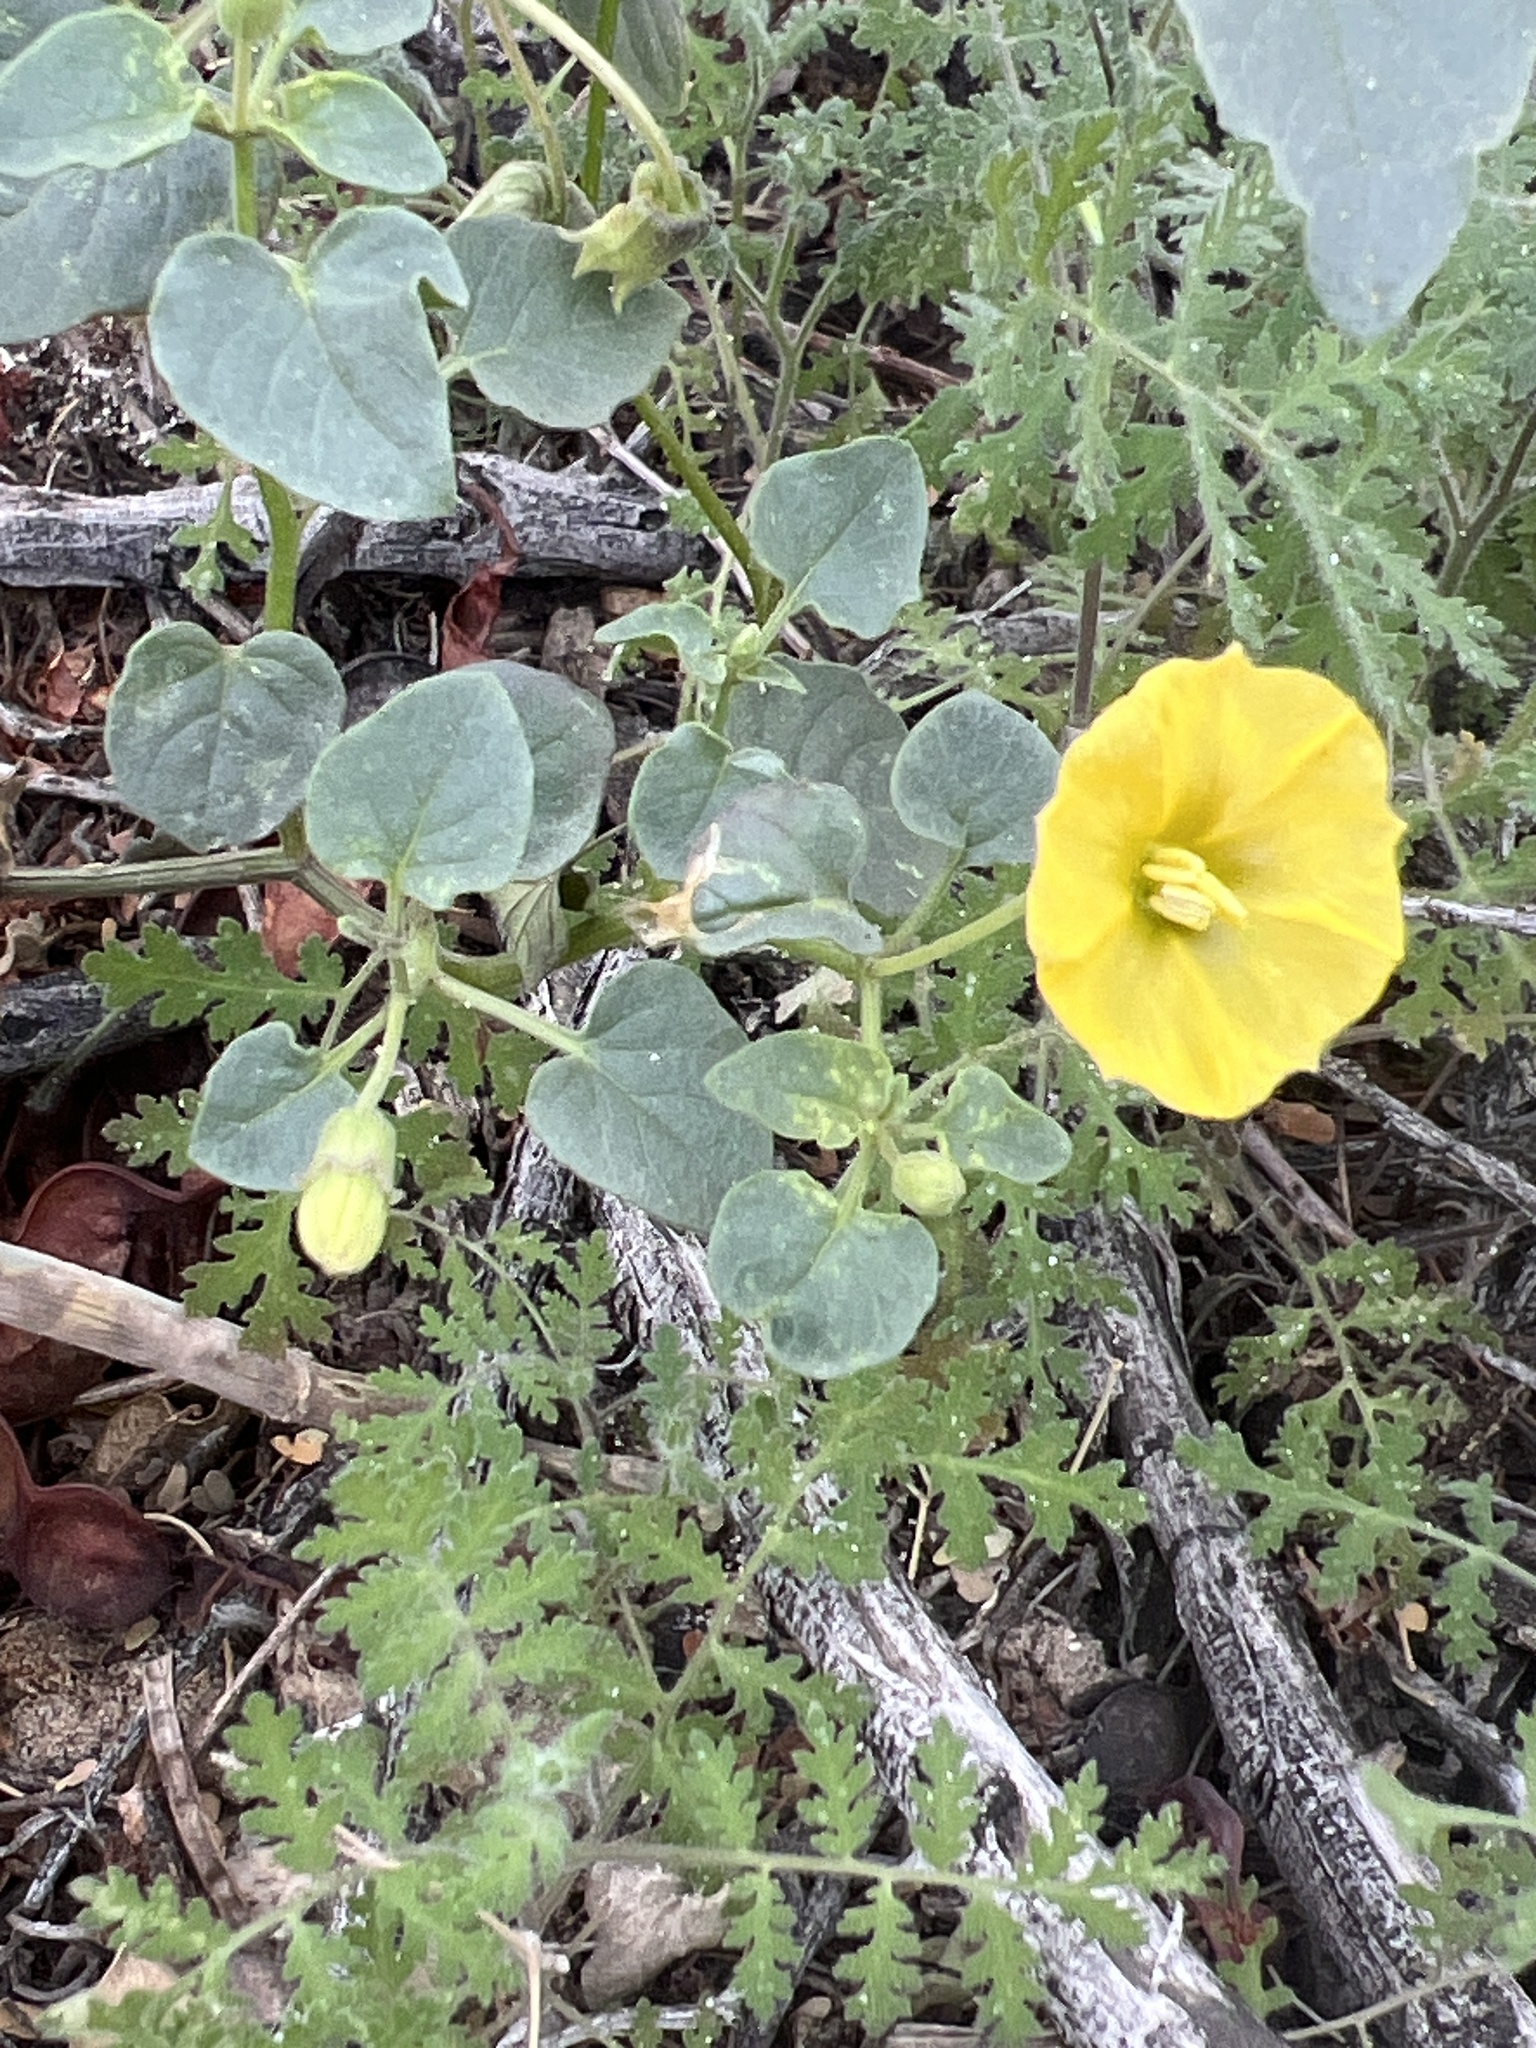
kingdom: Plantae
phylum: Tracheophyta
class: Magnoliopsida
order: Solanales
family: Solanaceae
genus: Physalis
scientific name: Physalis crassifolia
